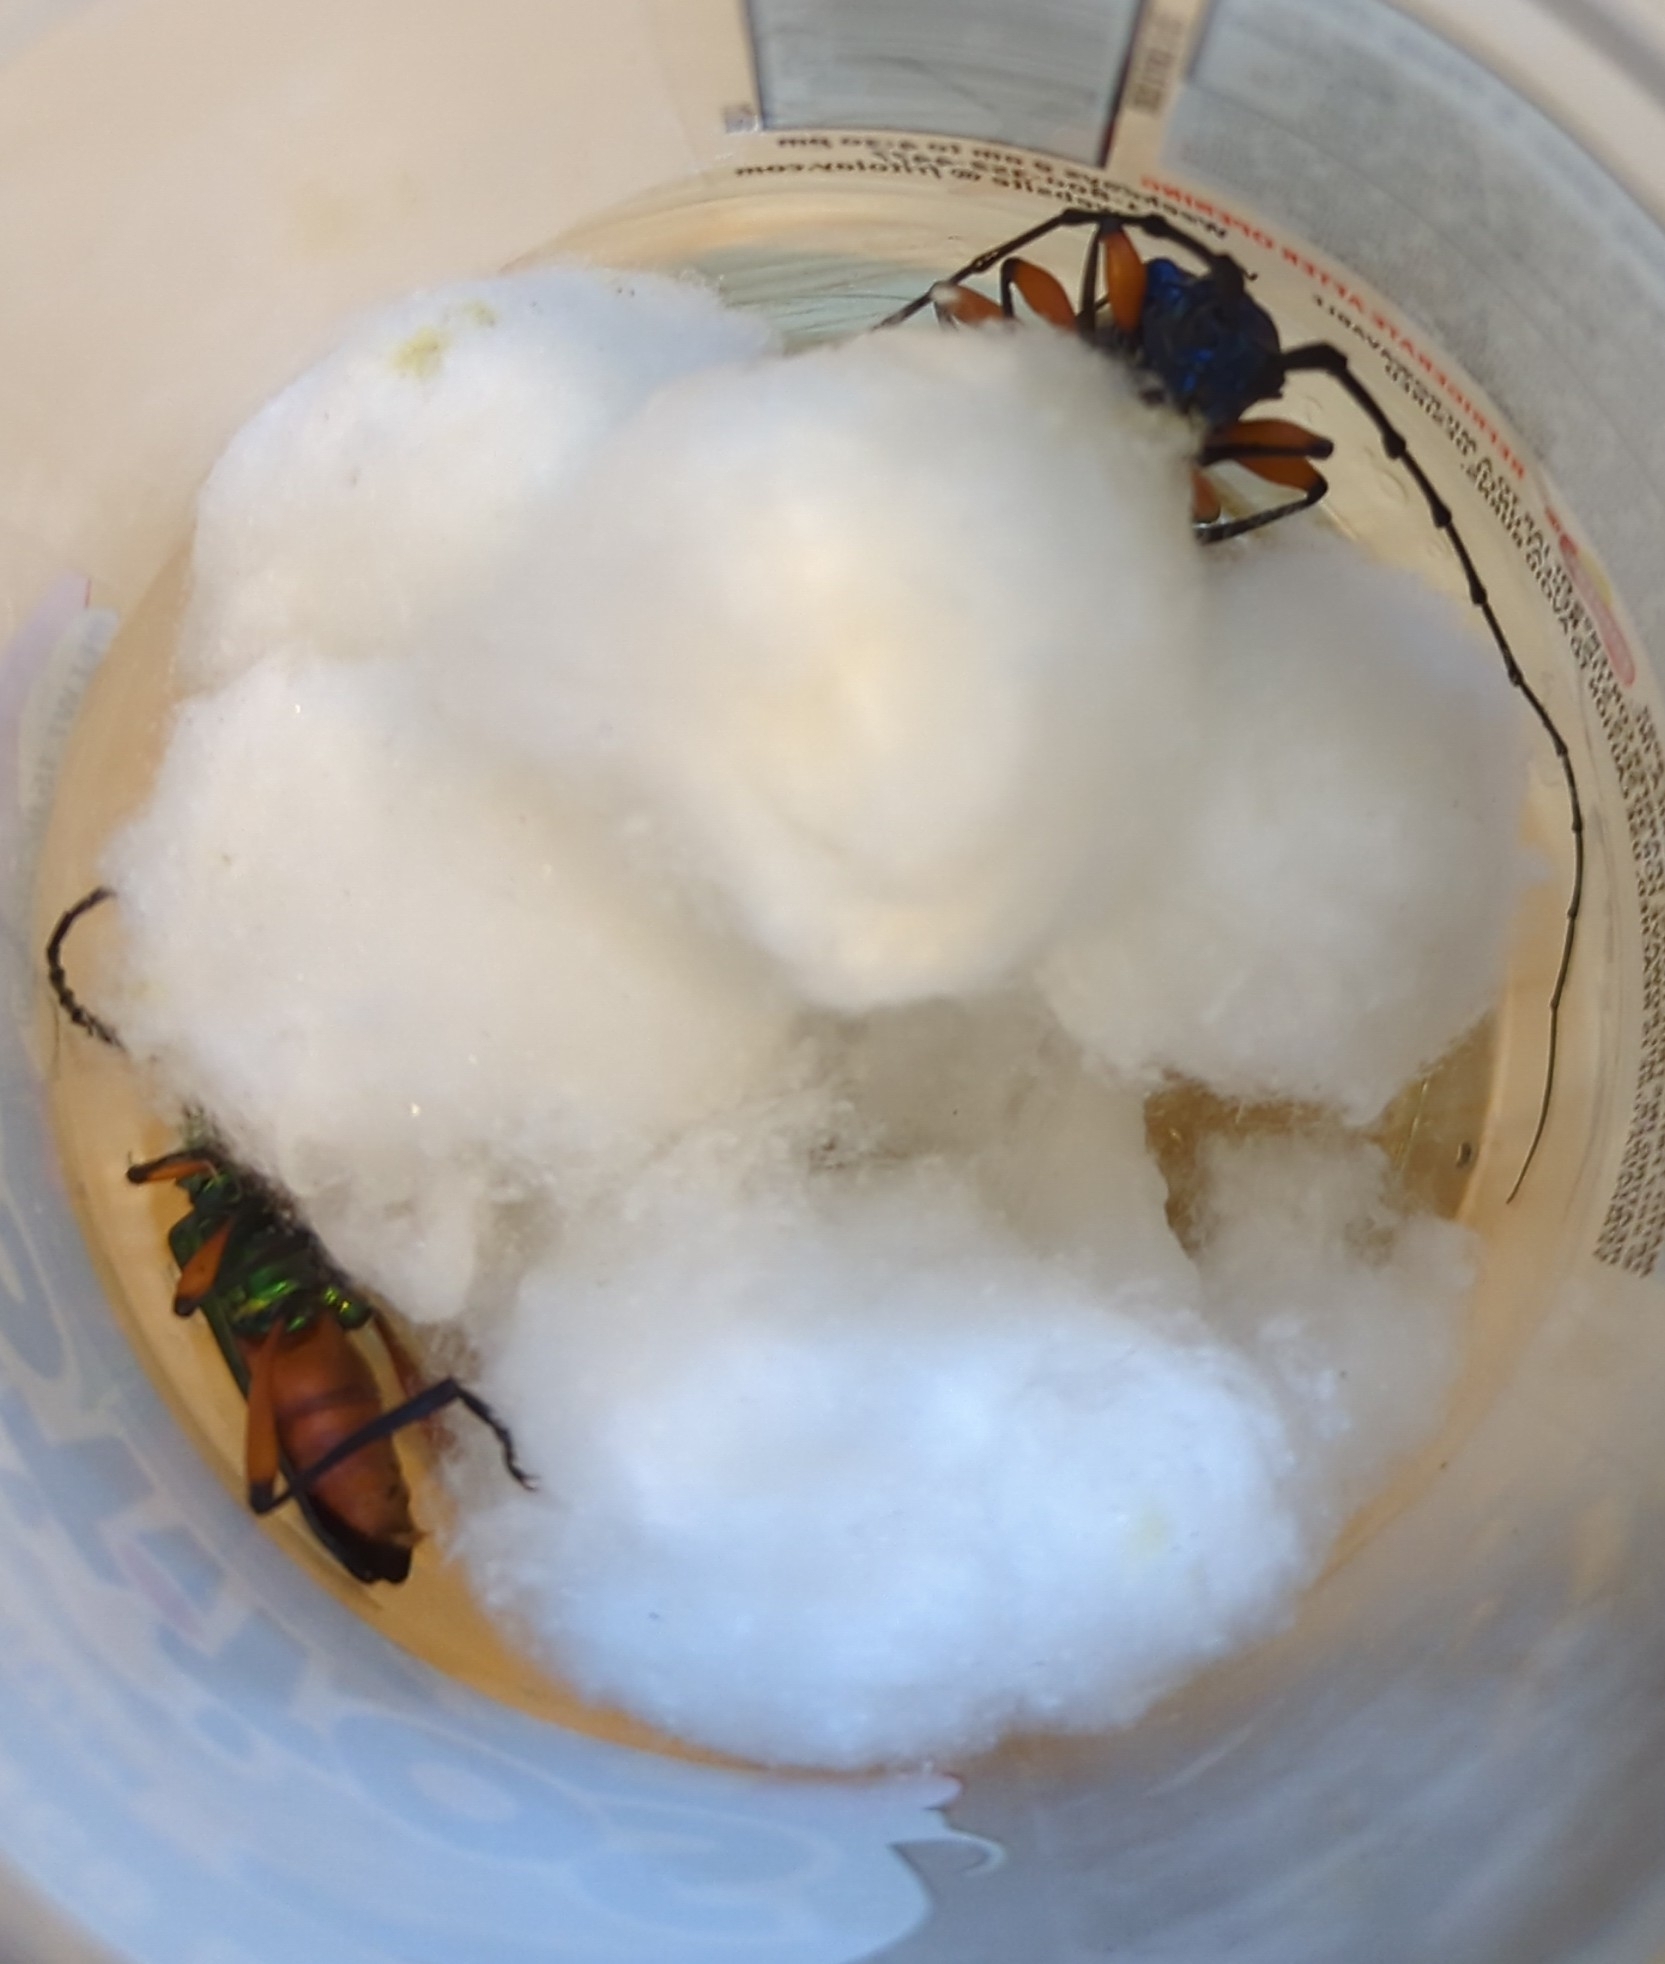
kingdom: Animalia
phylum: Arthropoda
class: Insecta
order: Coleoptera
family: Cerambycidae
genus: Plinthocoelium
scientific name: Plinthocoelium suaveolens
